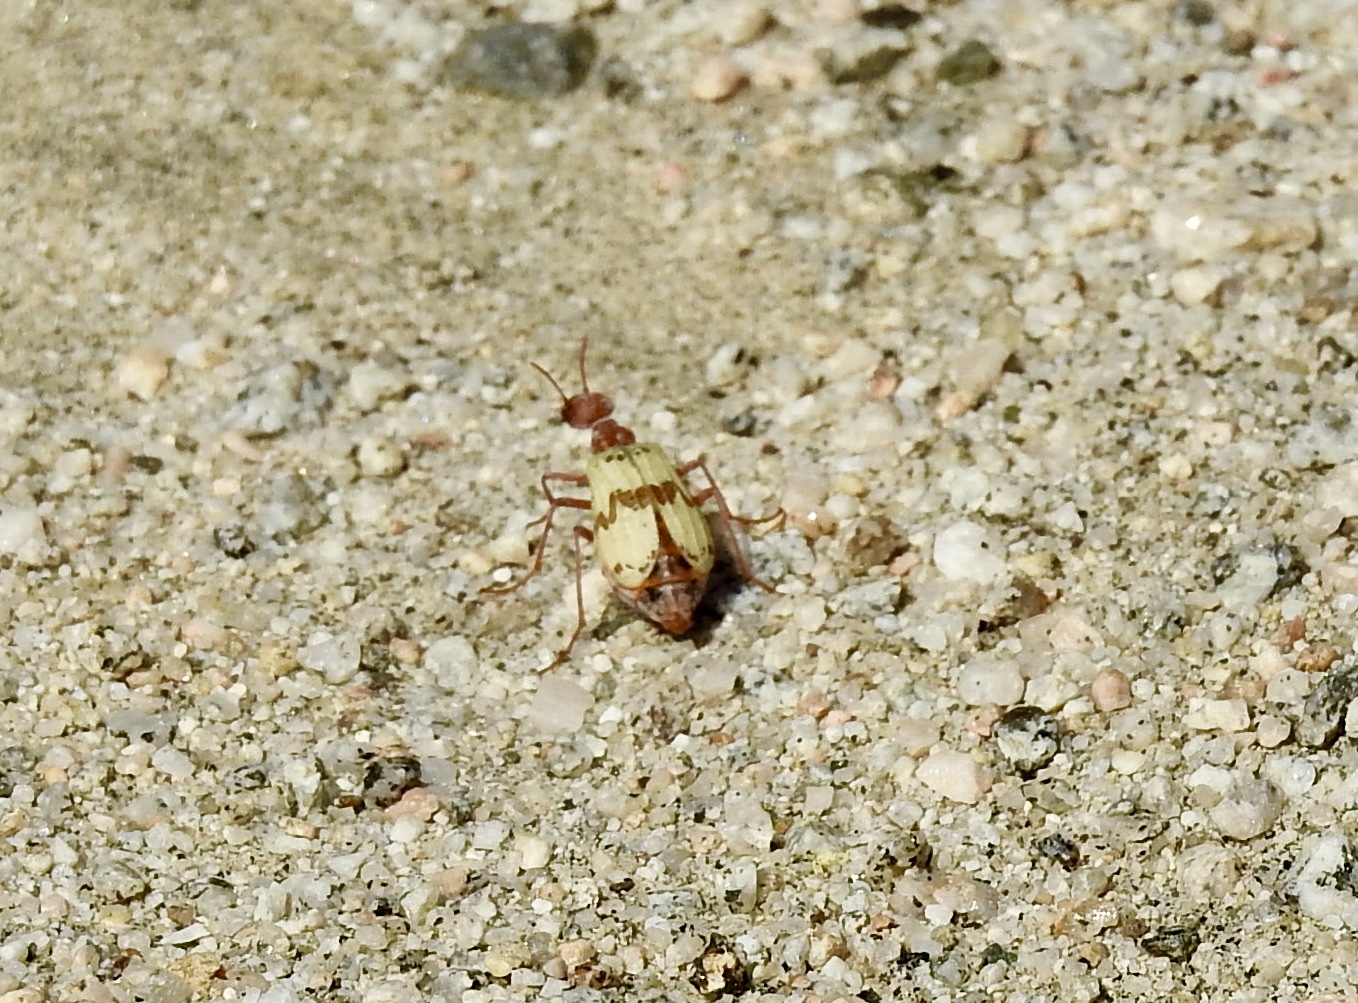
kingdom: Animalia
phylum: Arthropoda
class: Insecta
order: Coleoptera
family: Meloidae
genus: Pleuropasta
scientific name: Pleuropasta mirabilis
